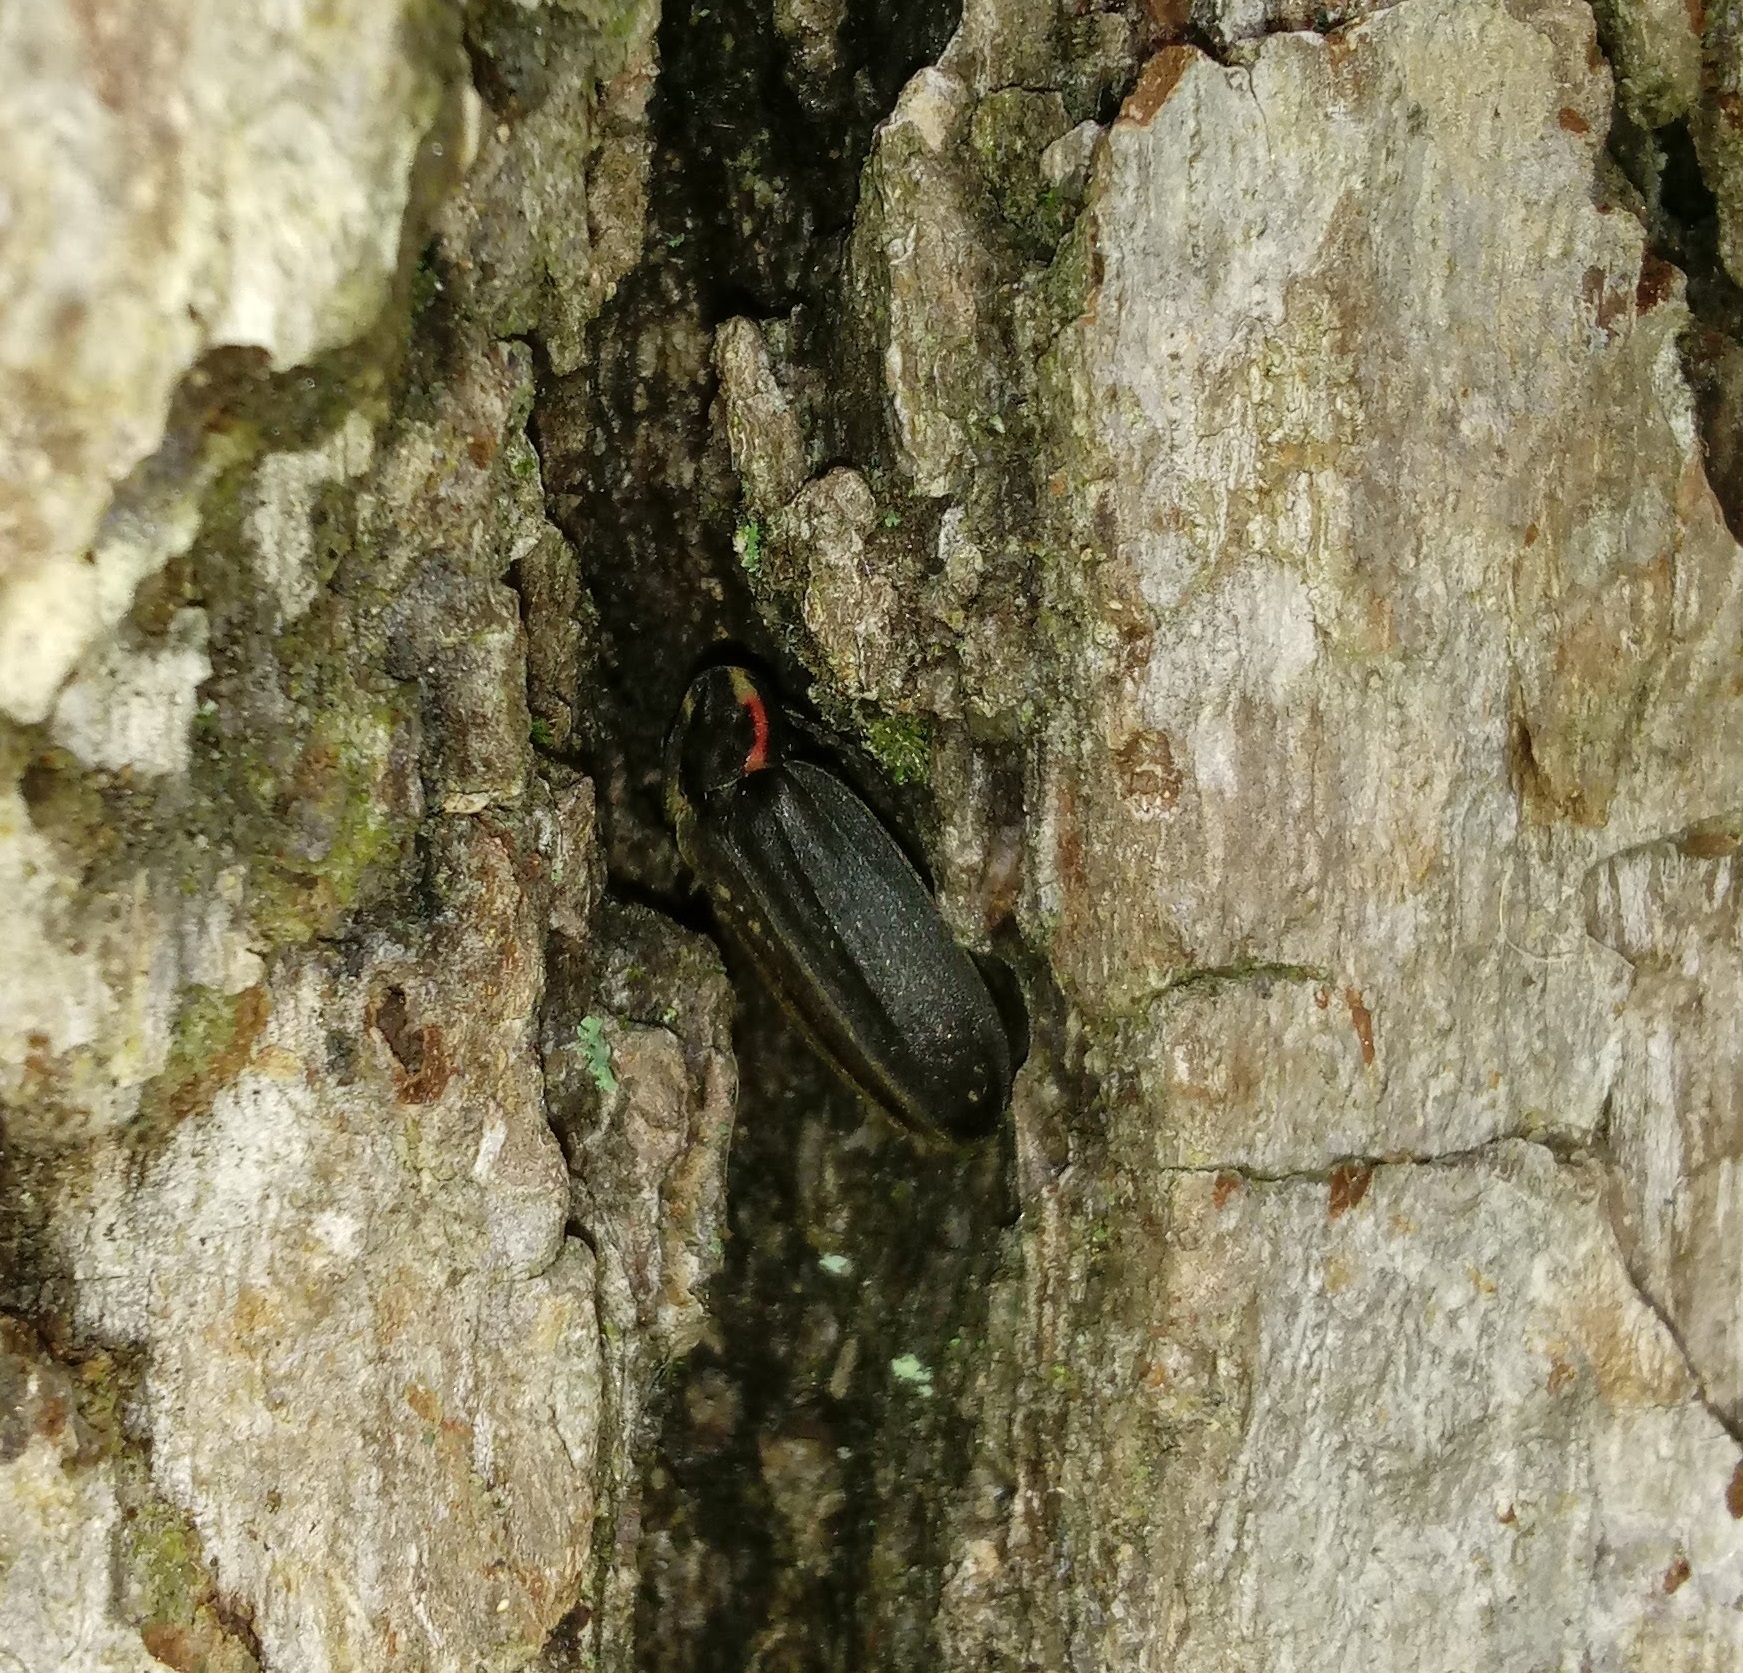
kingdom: Animalia
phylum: Arthropoda
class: Insecta
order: Coleoptera
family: Lampyridae
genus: Photinus
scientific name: Photinus corrusca
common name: Winter firefly
